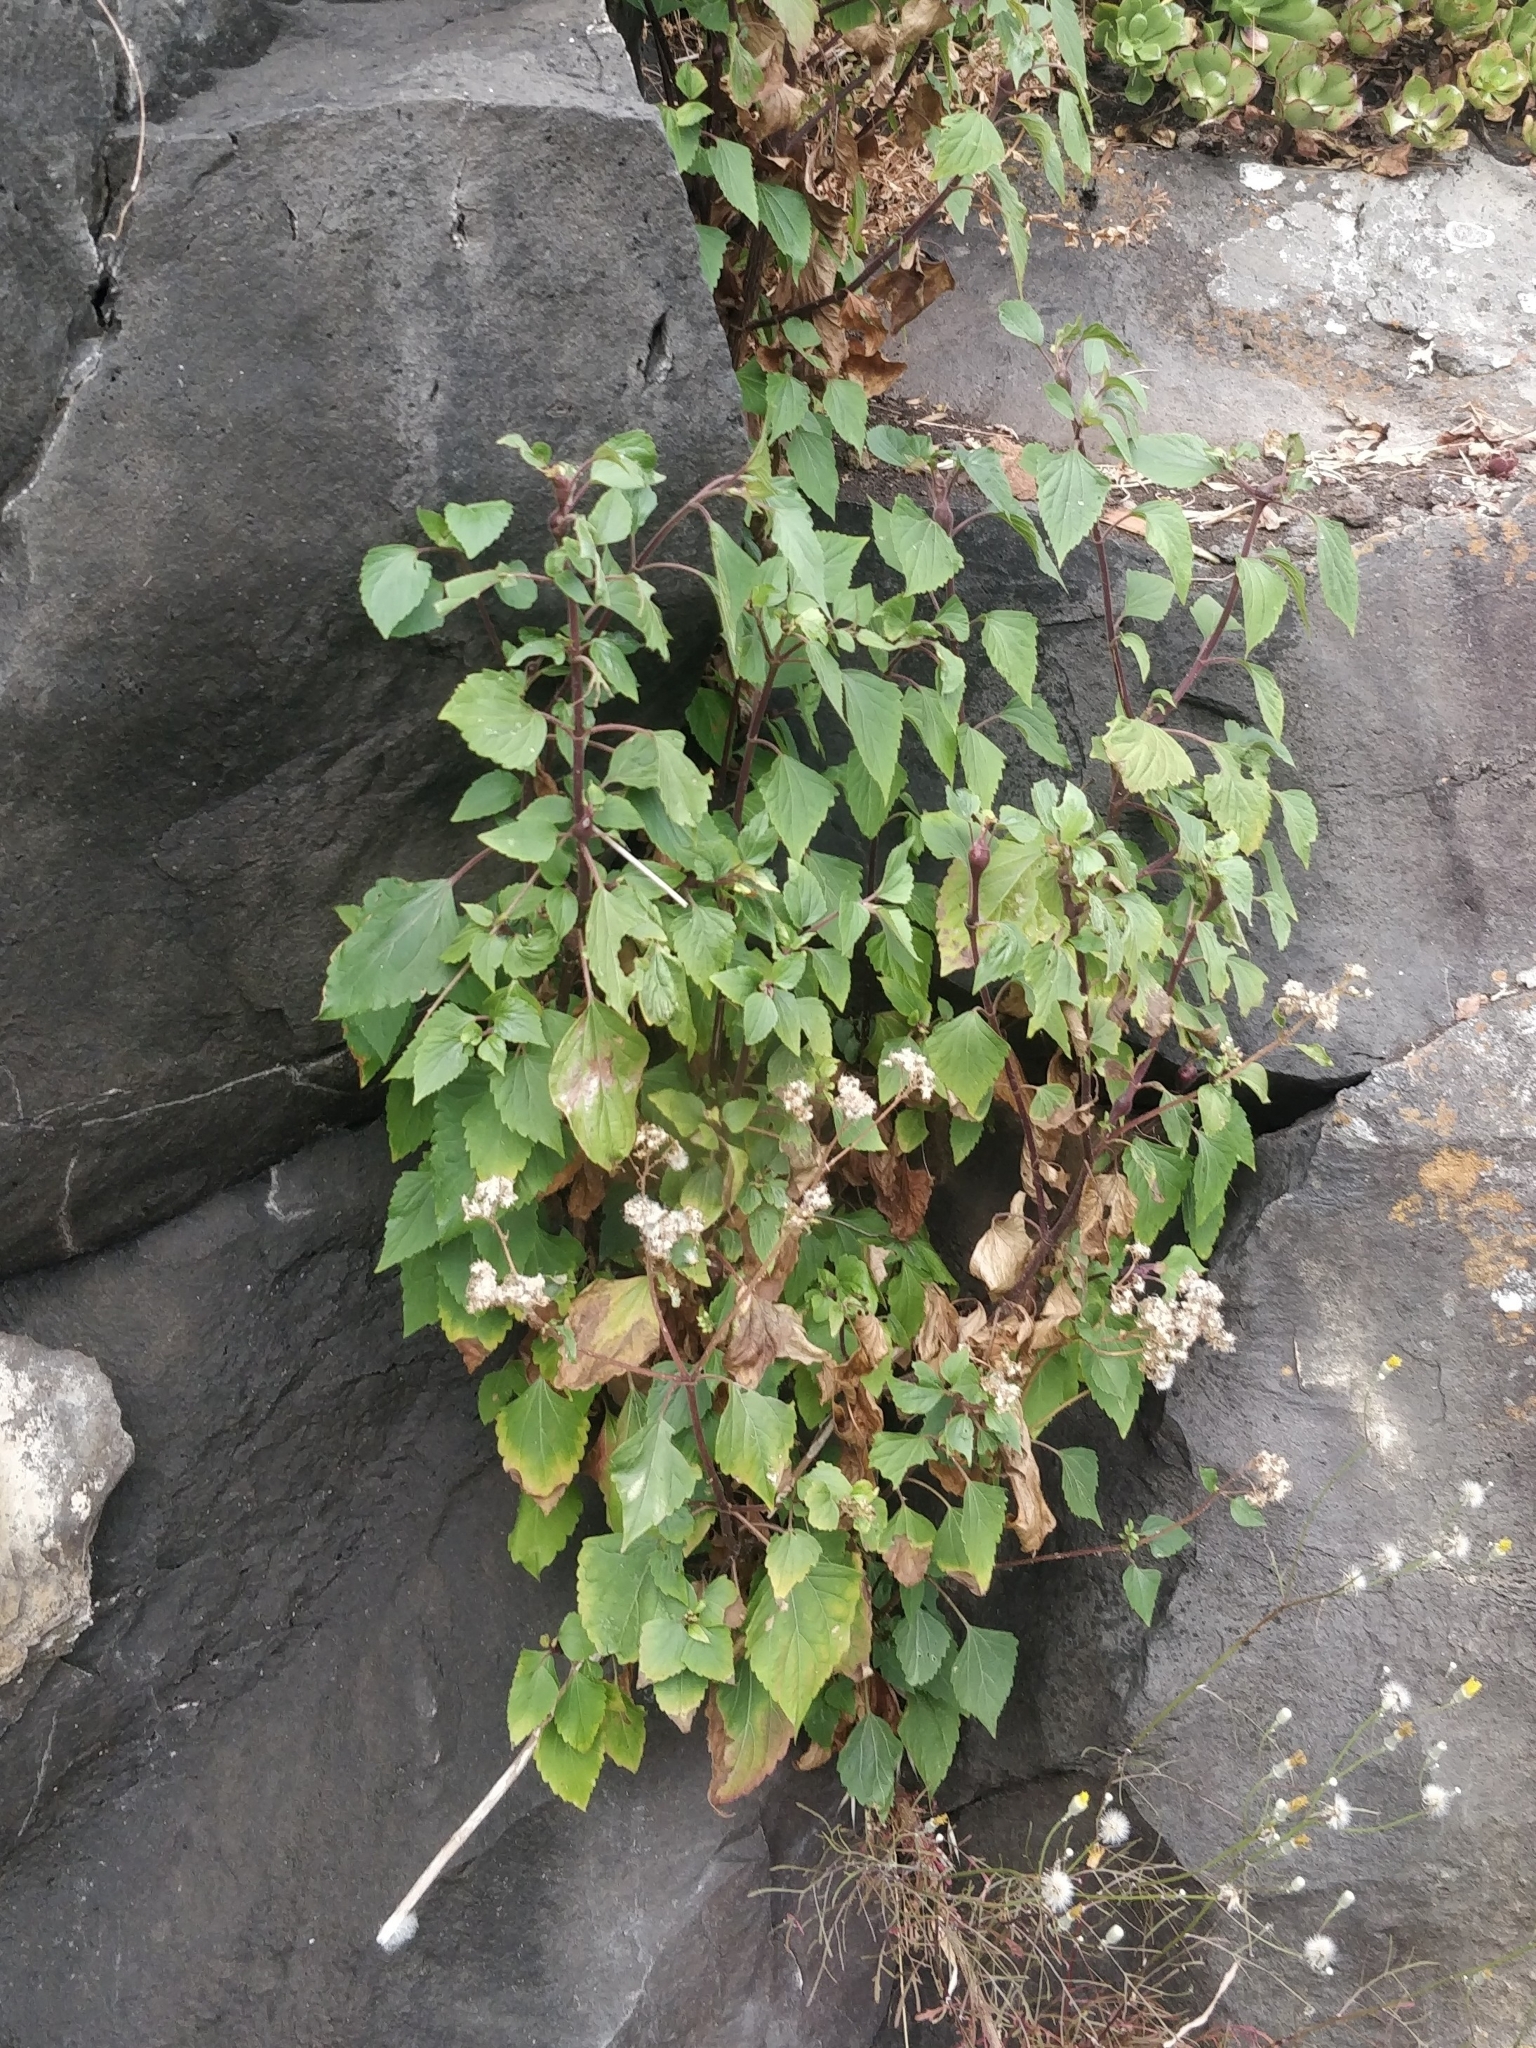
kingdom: Plantae
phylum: Tracheophyta
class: Magnoliopsida
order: Asterales
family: Asteraceae
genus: Ageratina
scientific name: Ageratina adenophora
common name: Sticky snakeroot
